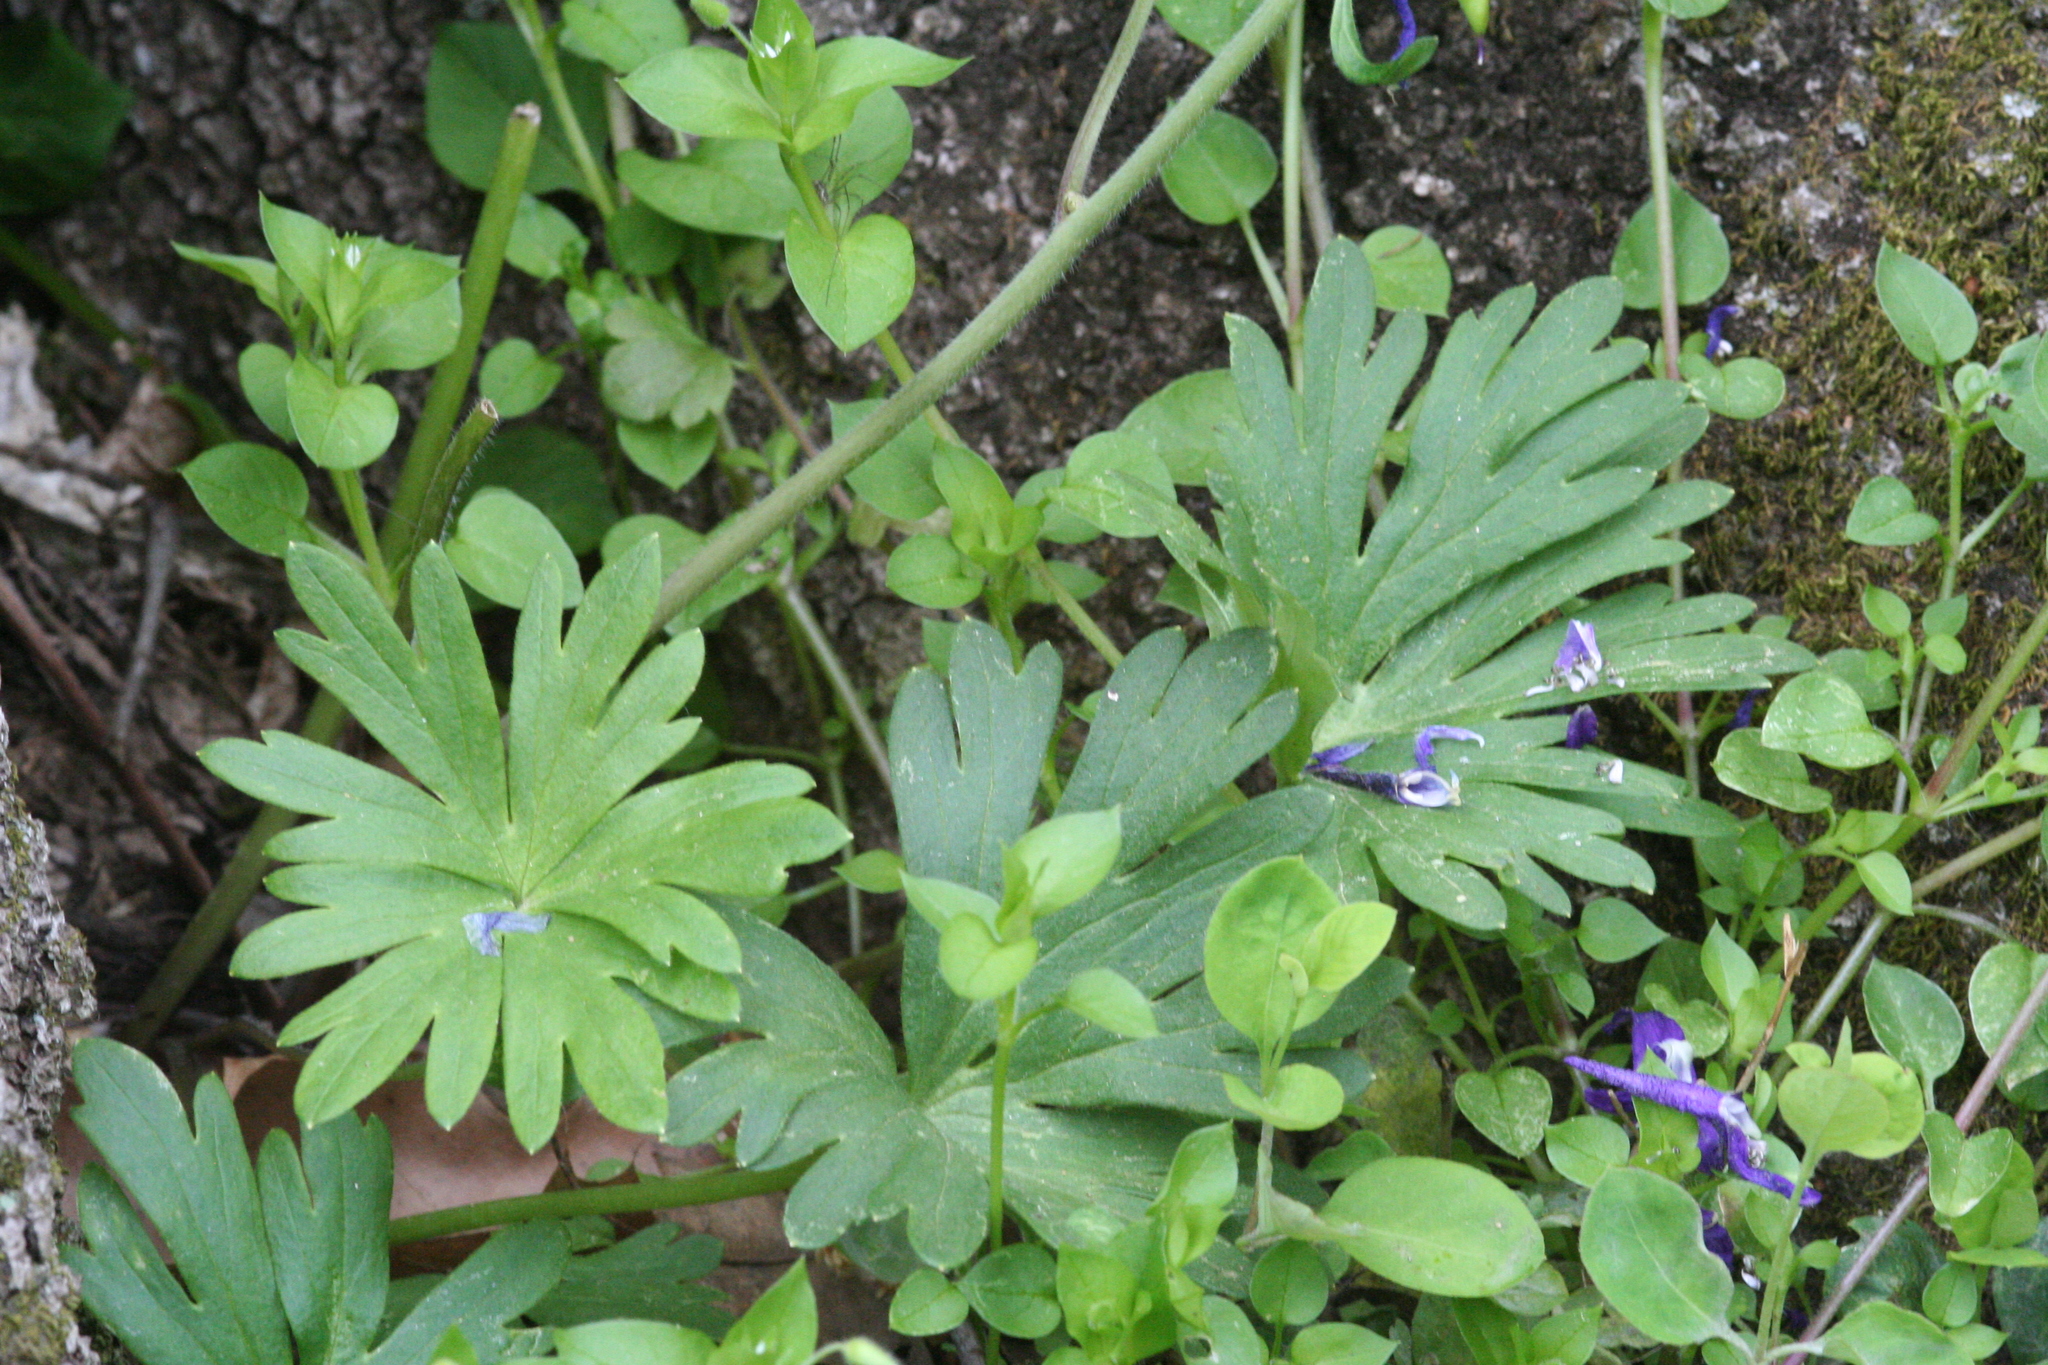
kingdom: Plantae
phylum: Tracheophyta
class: Magnoliopsida
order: Ranunculales
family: Ranunculaceae
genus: Delphinium
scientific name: Delphinium tricorne
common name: Dwarf larkspur
